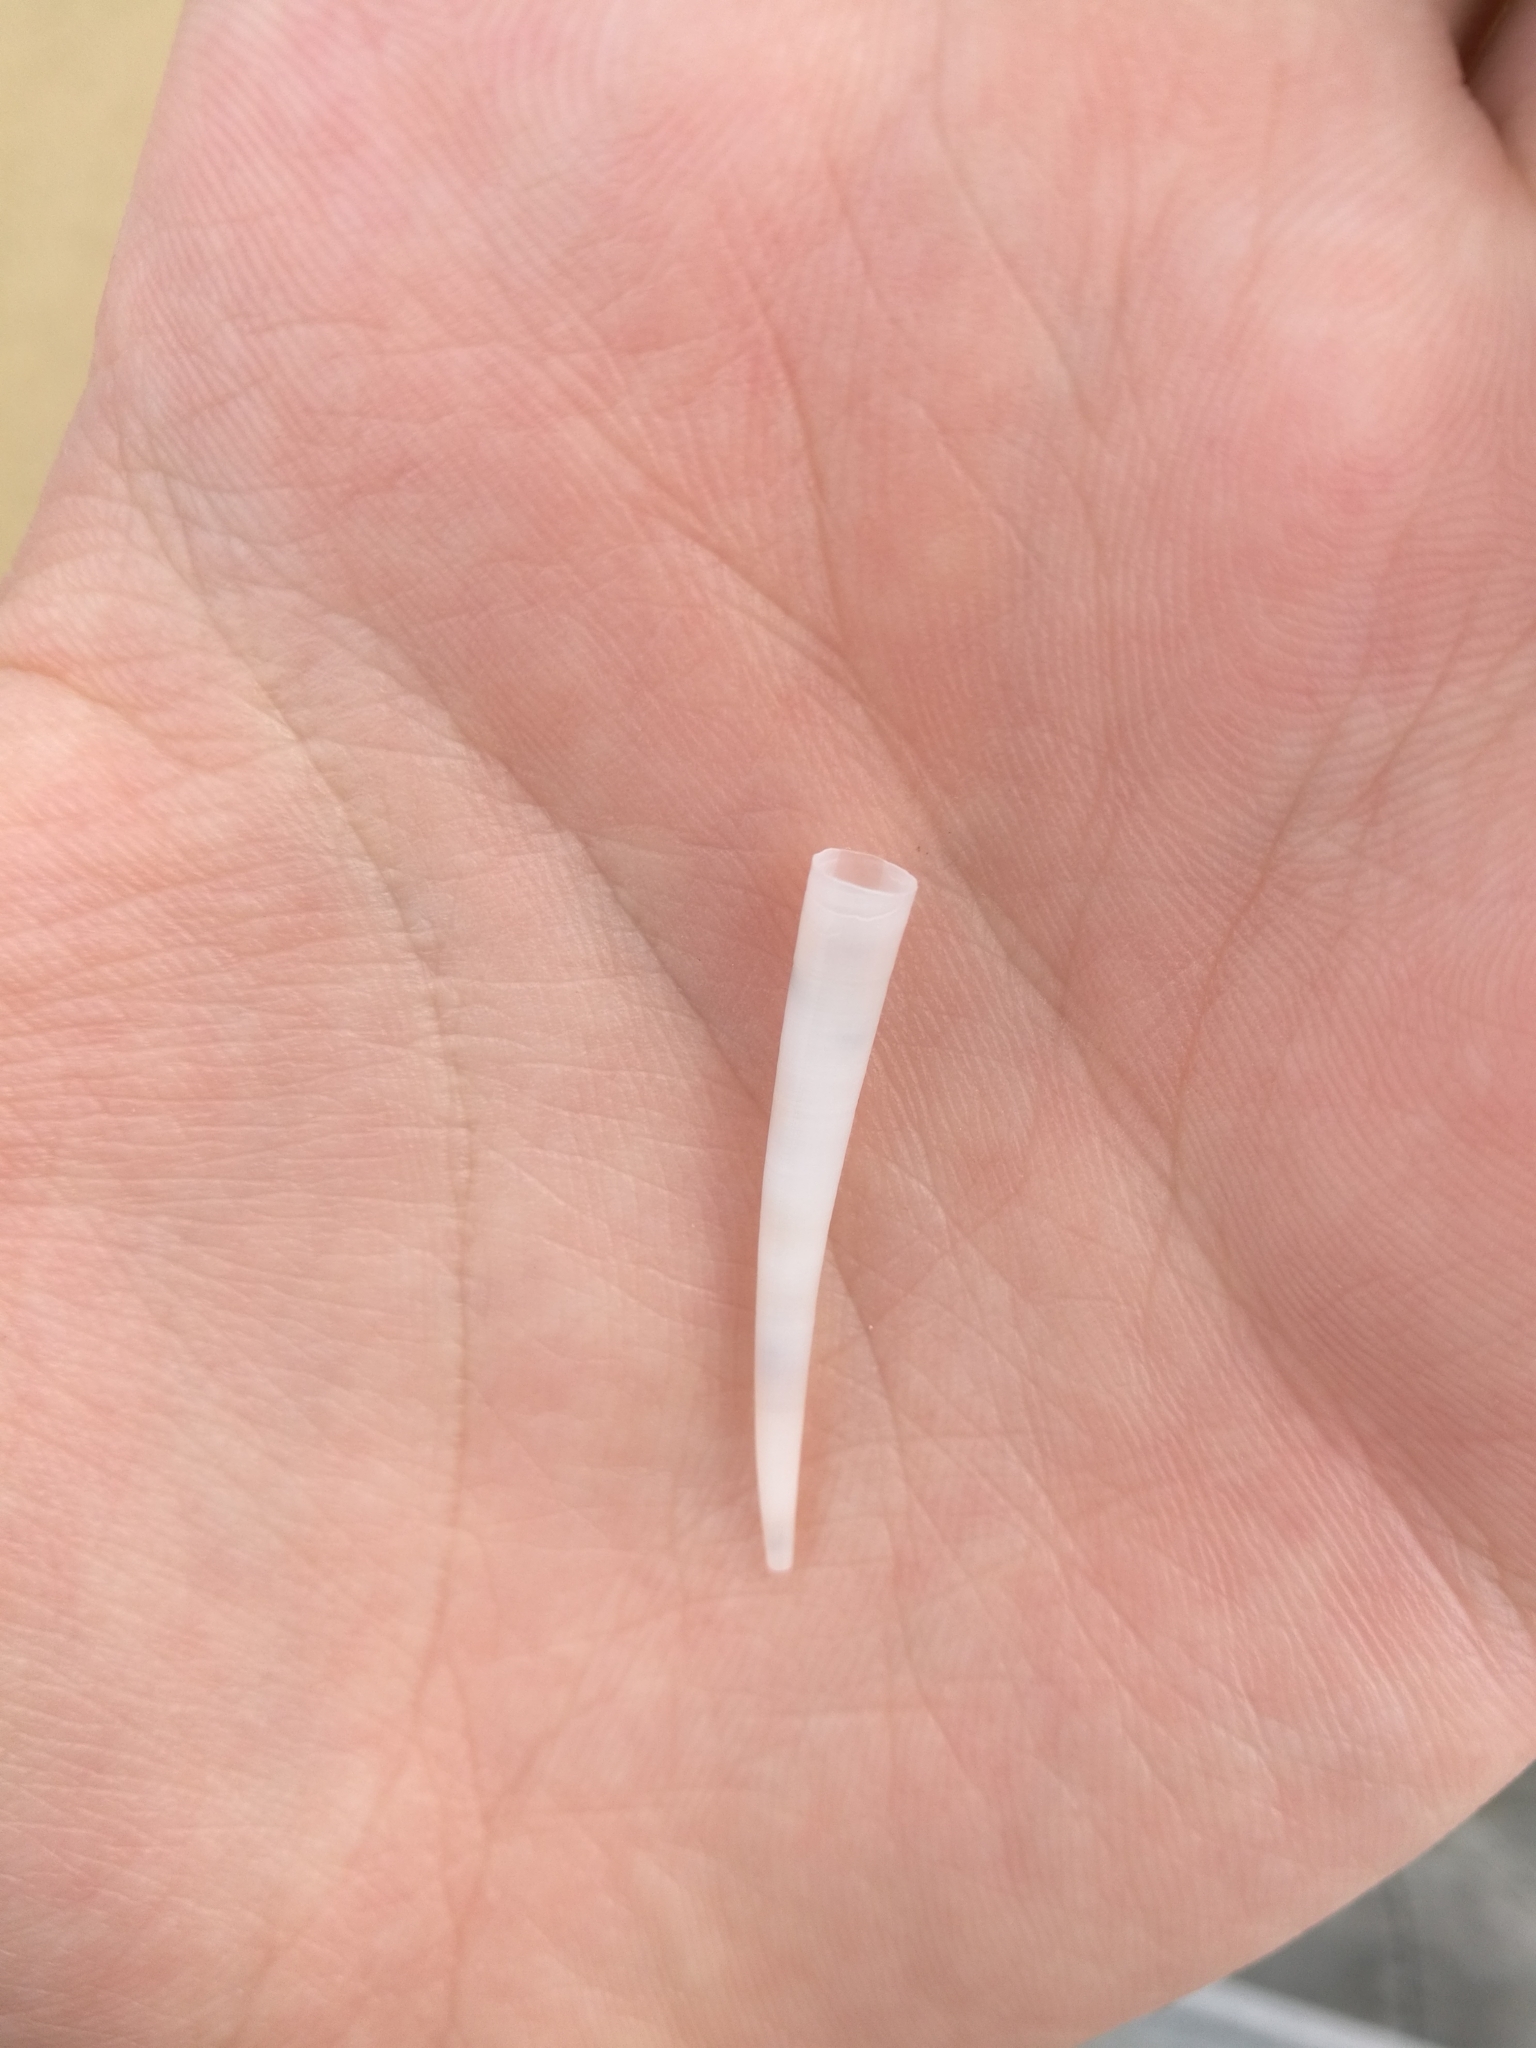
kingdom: Animalia
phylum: Mollusca
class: Scaphopoda
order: Dentaliida
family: Dentaliidae
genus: Antalis
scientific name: Antalis vulgaris
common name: Common elephant's tusk
